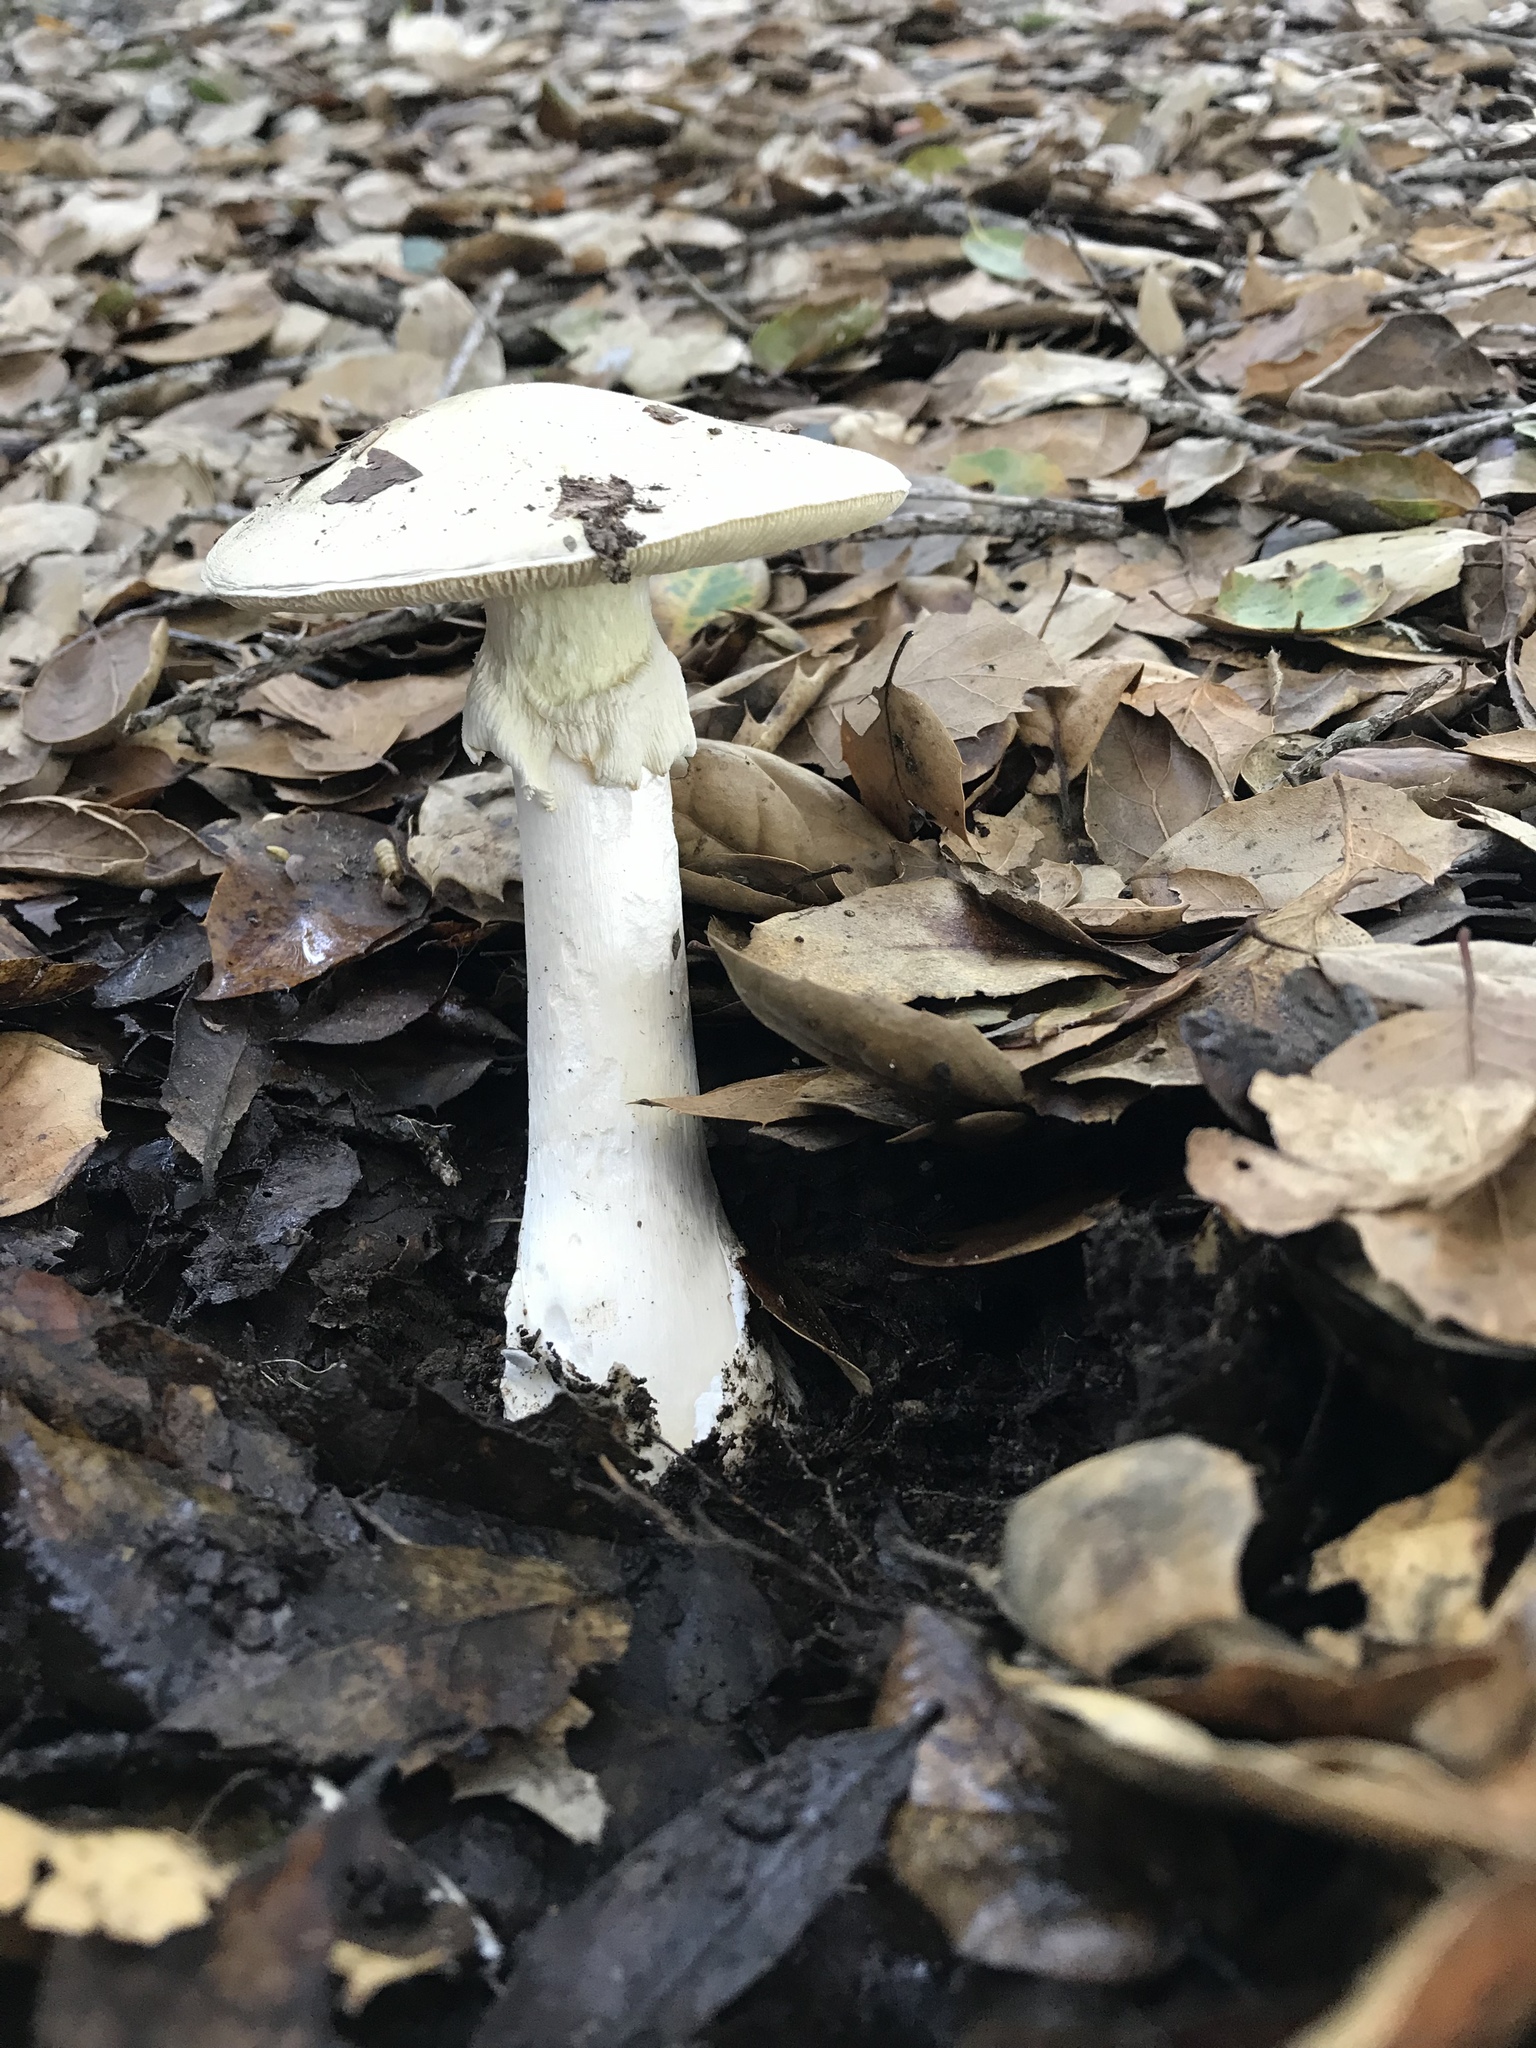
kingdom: Fungi
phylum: Basidiomycota
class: Agaricomycetes
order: Agaricales
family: Amanitaceae
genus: Amanita
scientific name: Amanita phalloides
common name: Death cap
